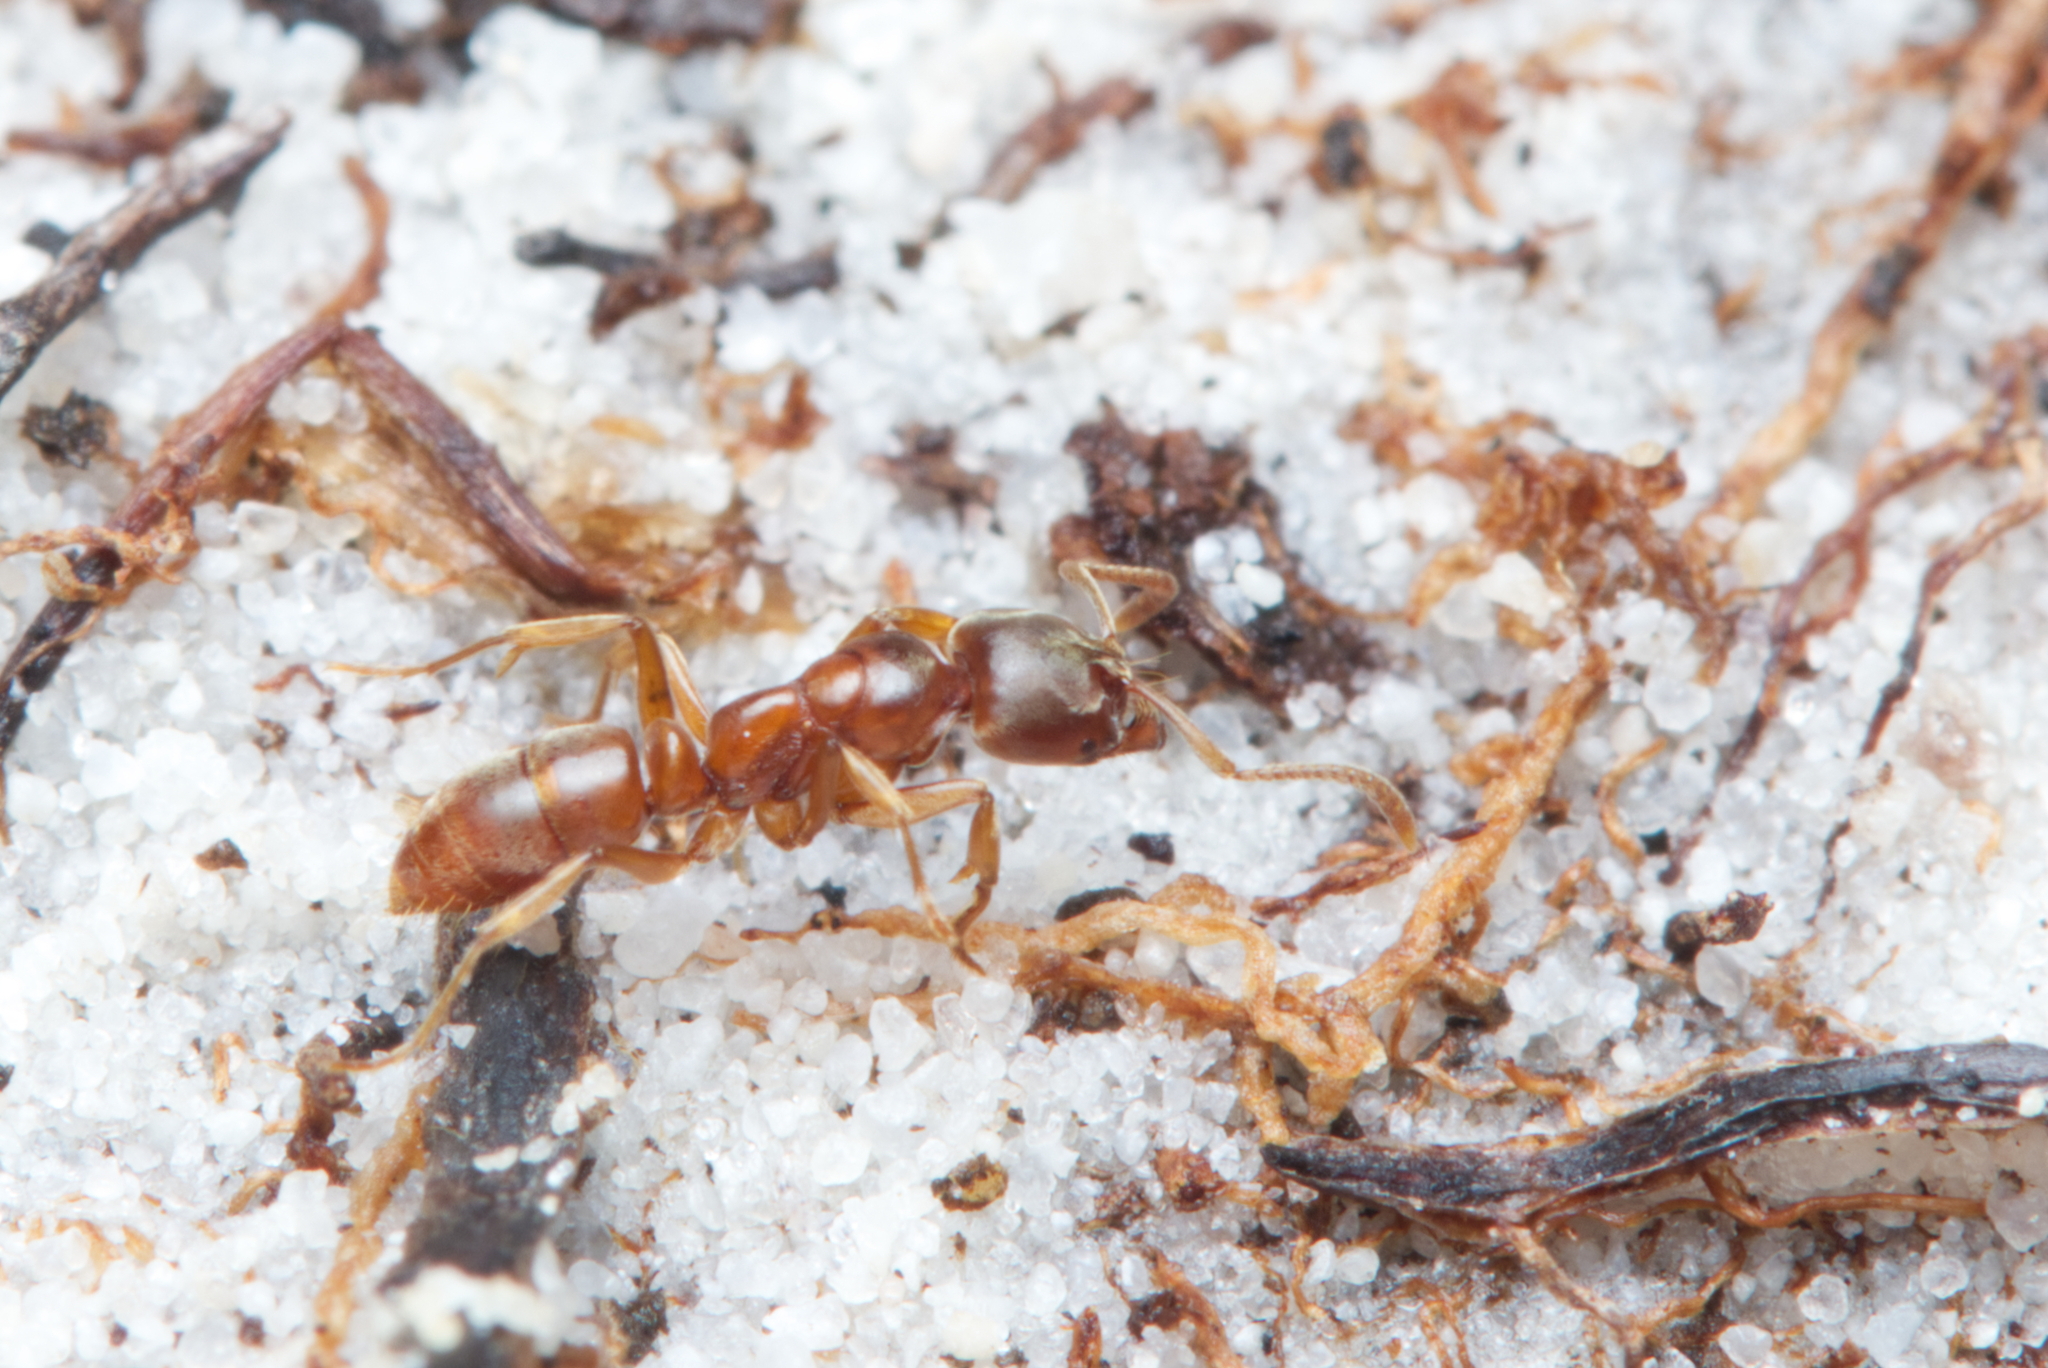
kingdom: Animalia
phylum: Arthropoda
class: Insecta
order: Hymenoptera
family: Formicidae
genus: Brachyponera
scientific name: Brachyponera
